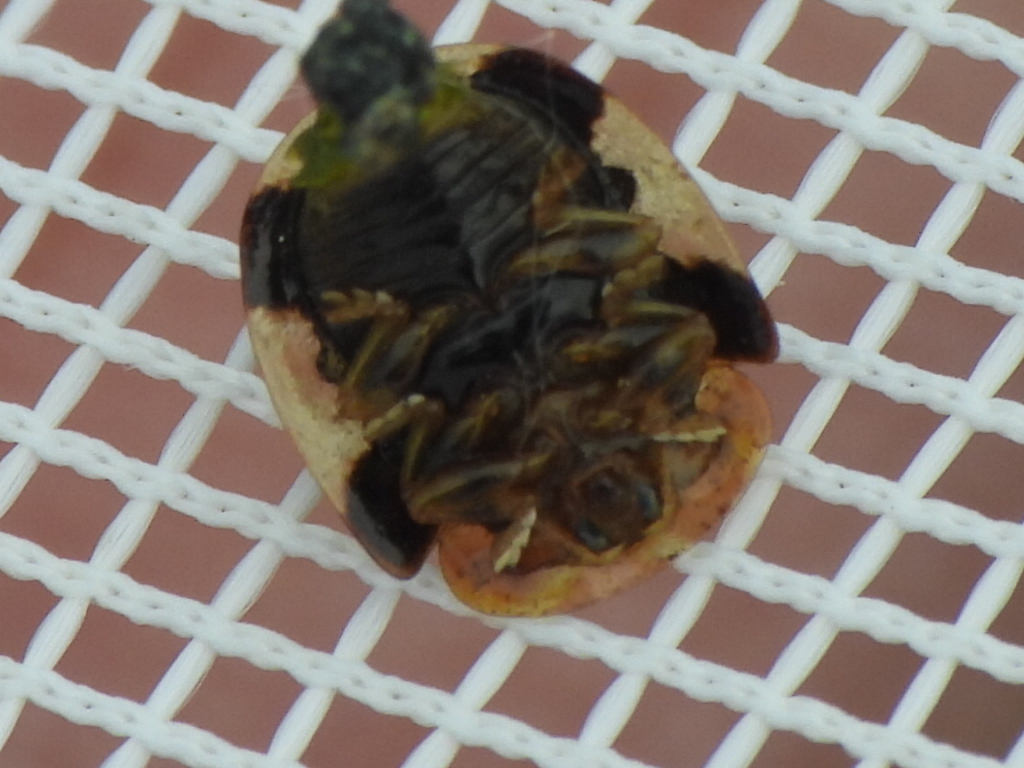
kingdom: Animalia
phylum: Arthropoda
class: Insecta
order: Coleoptera
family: Chrysomelidae
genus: Parorectis
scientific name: Parorectis callosa
